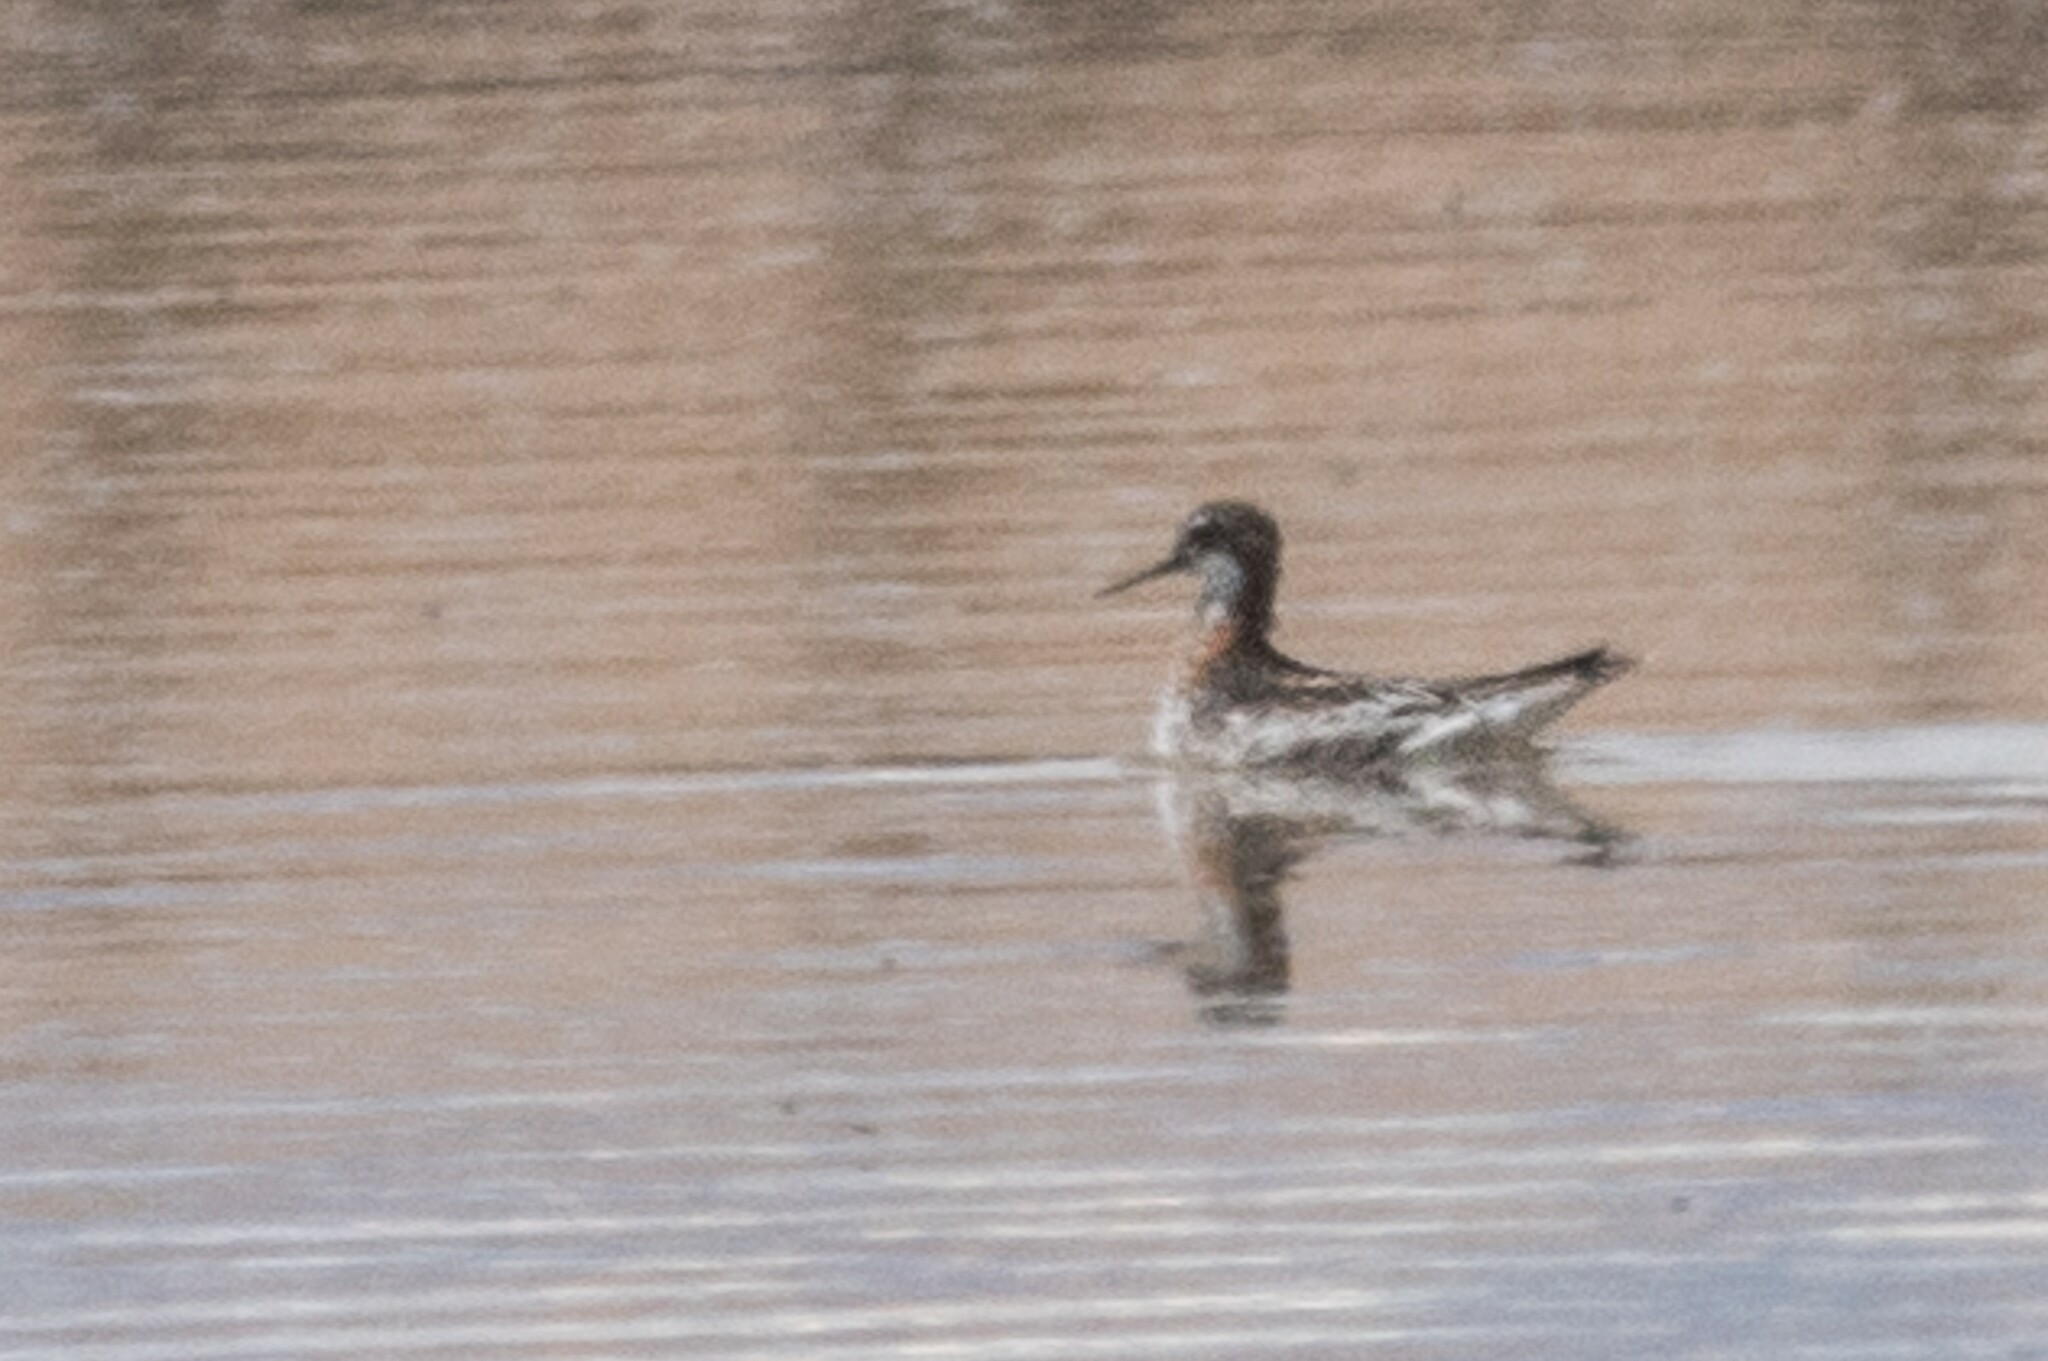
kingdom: Animalia
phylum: Chordata
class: Aves
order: Charadriiformes
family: Scolopacidae
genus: Phalaropus
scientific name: Phalaropus lobatus
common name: Red-necked phalarope
